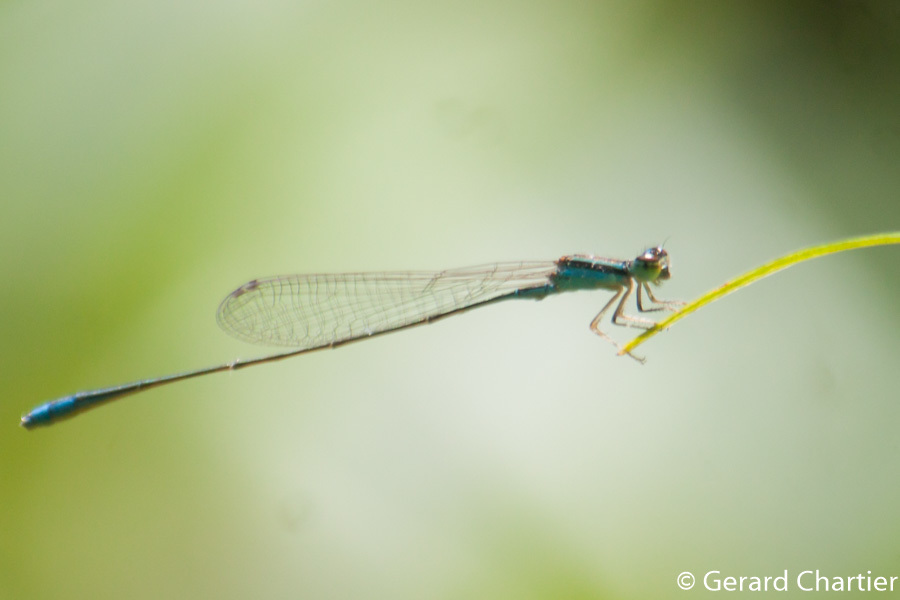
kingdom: Animalia
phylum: Arthropoda
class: Insecta
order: Odonata
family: Coenagrionidae
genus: Aciagrion
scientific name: Aciagrion borneense
